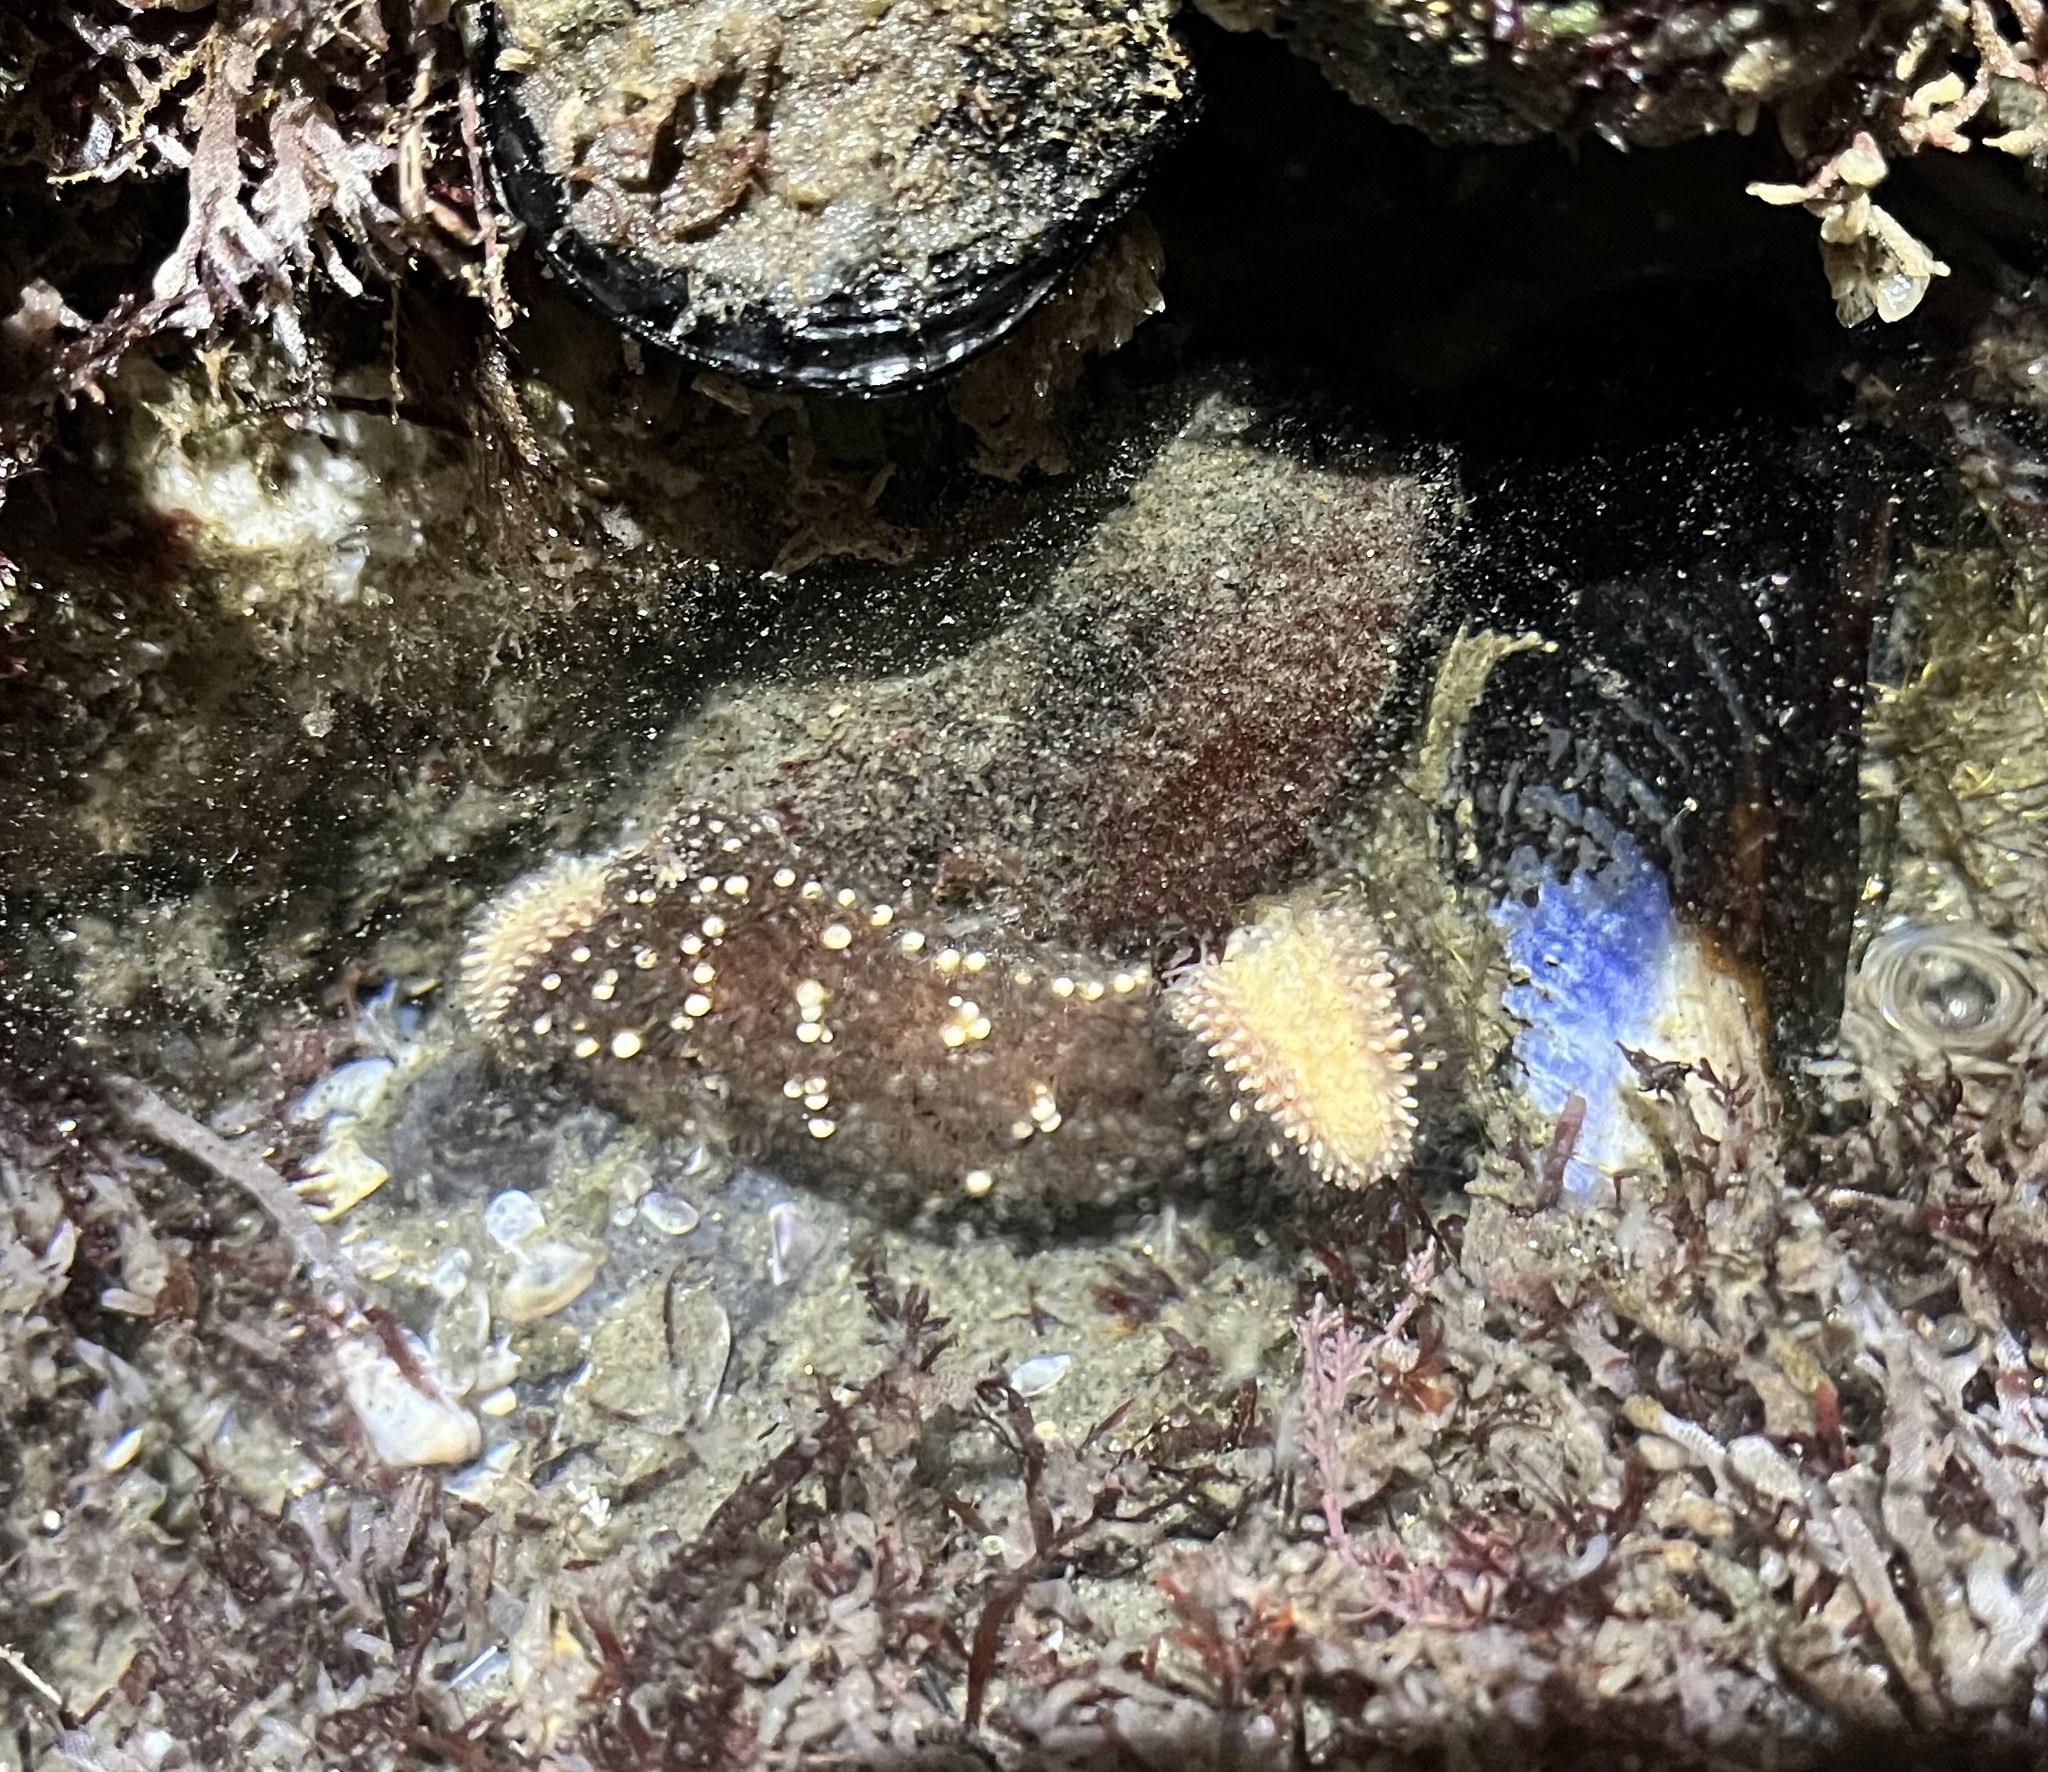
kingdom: Animalia
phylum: Echinodermata
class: Asteroidea
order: Forcipulatida
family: Asteriidae
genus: Pisaster
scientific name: Pisaster ochraceus
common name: Ochre stars
